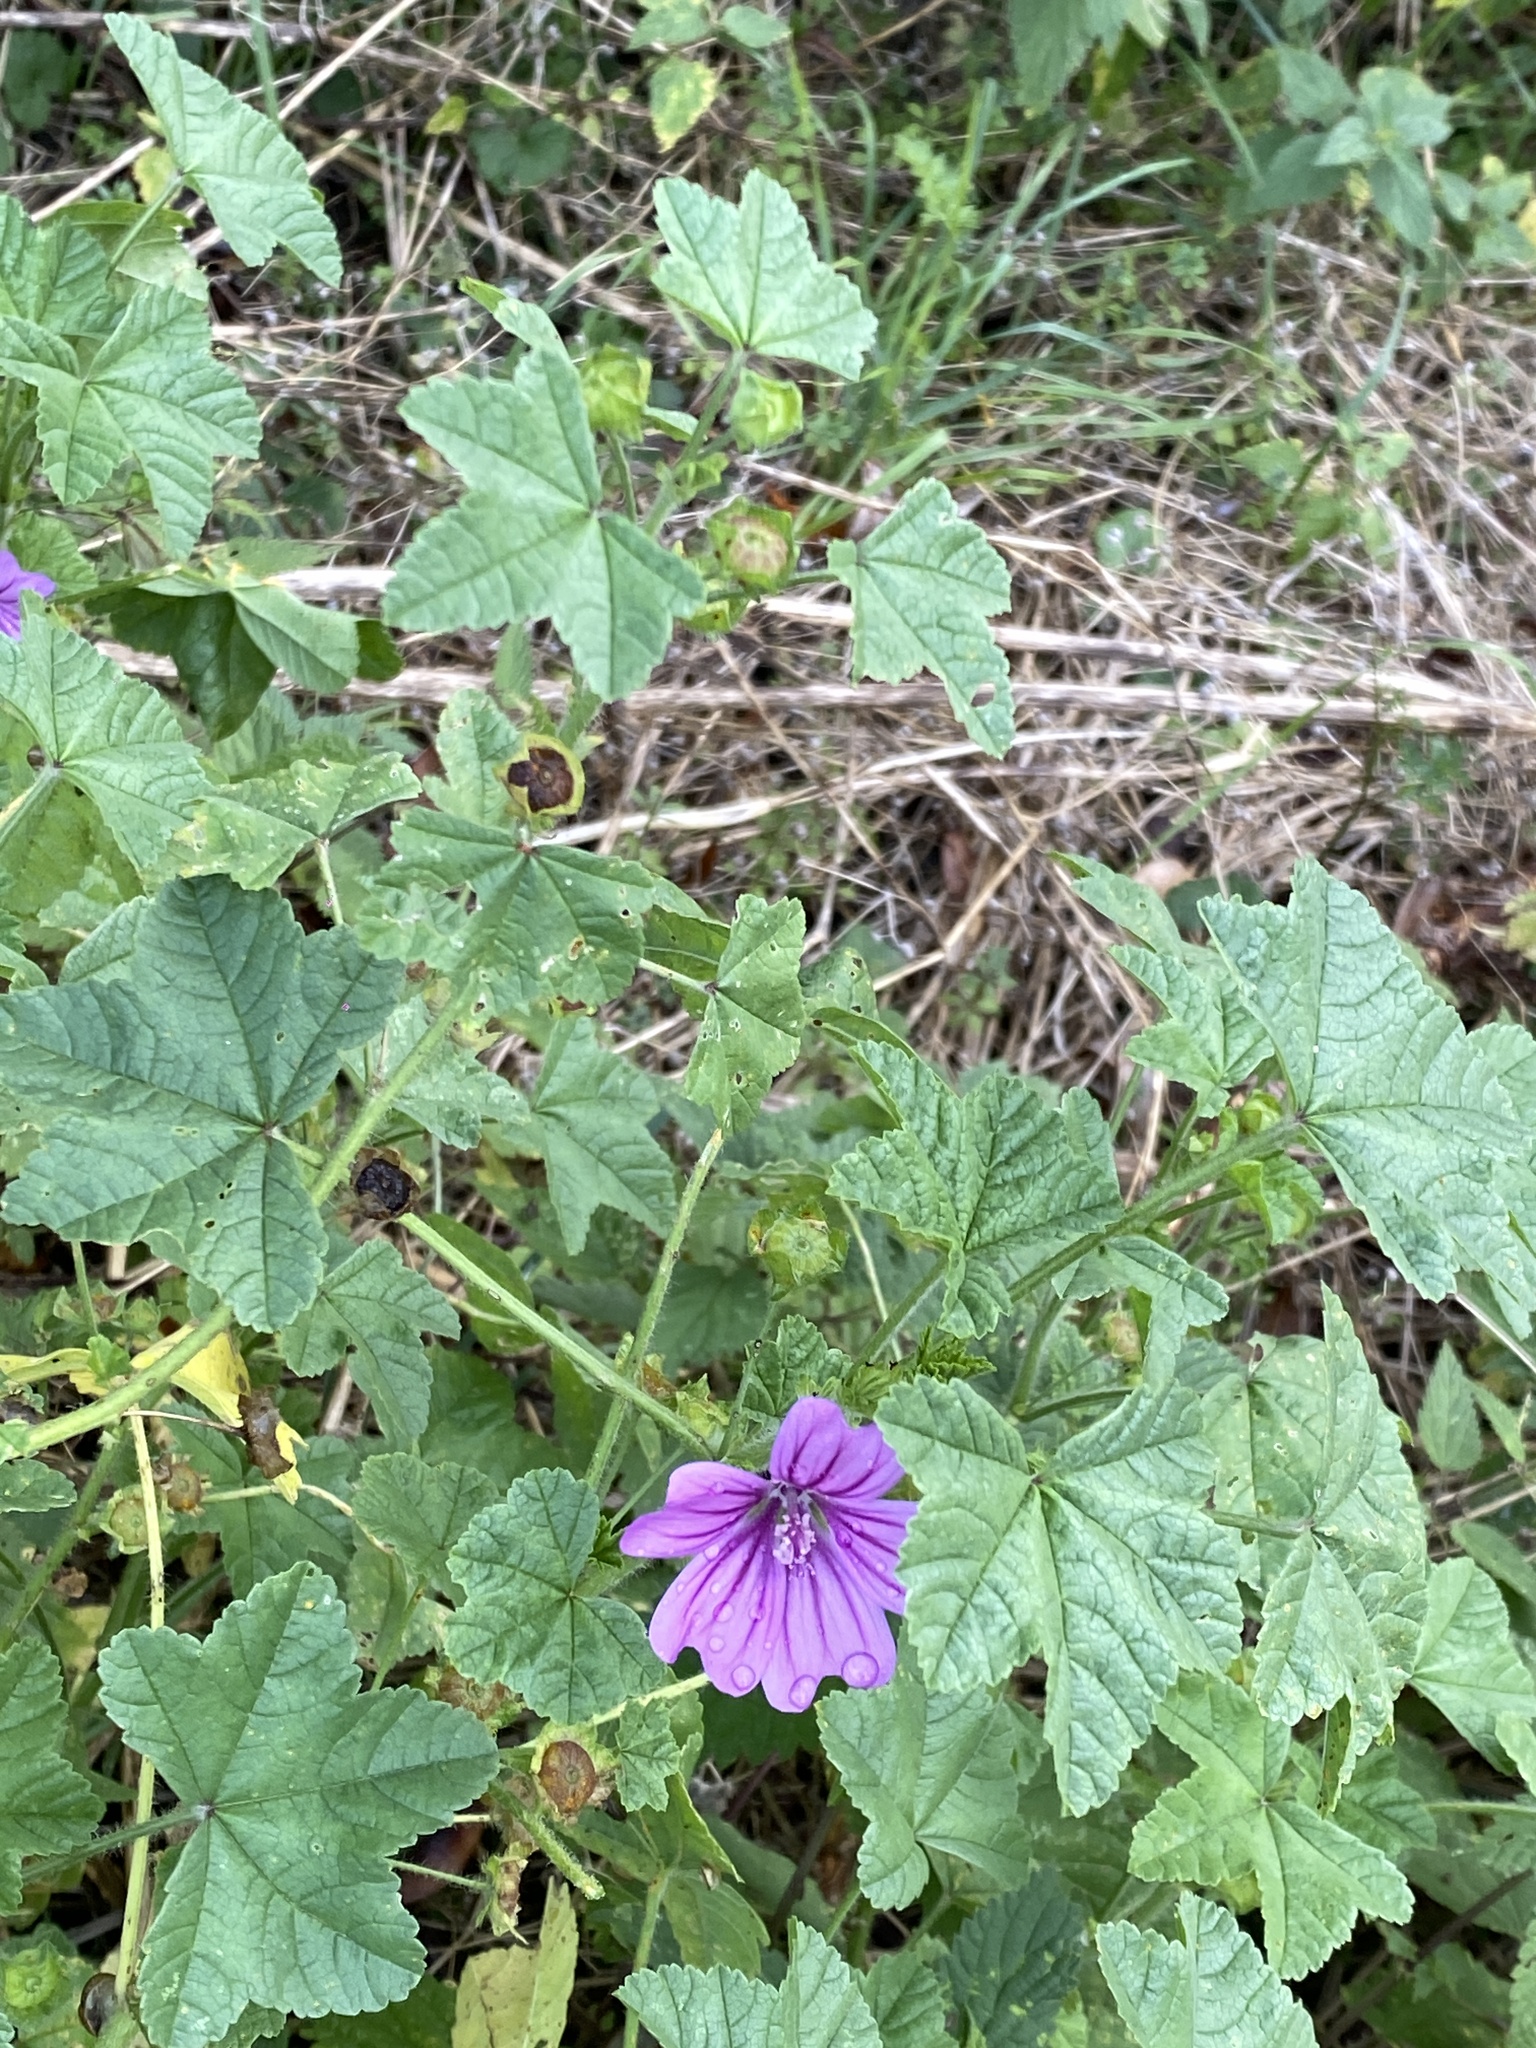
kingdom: Plantae
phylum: Tracheophyta
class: Magnoliopsida
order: Malvales
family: Malvaceae
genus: Malva
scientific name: Malva sylvestris
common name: Common mallow
